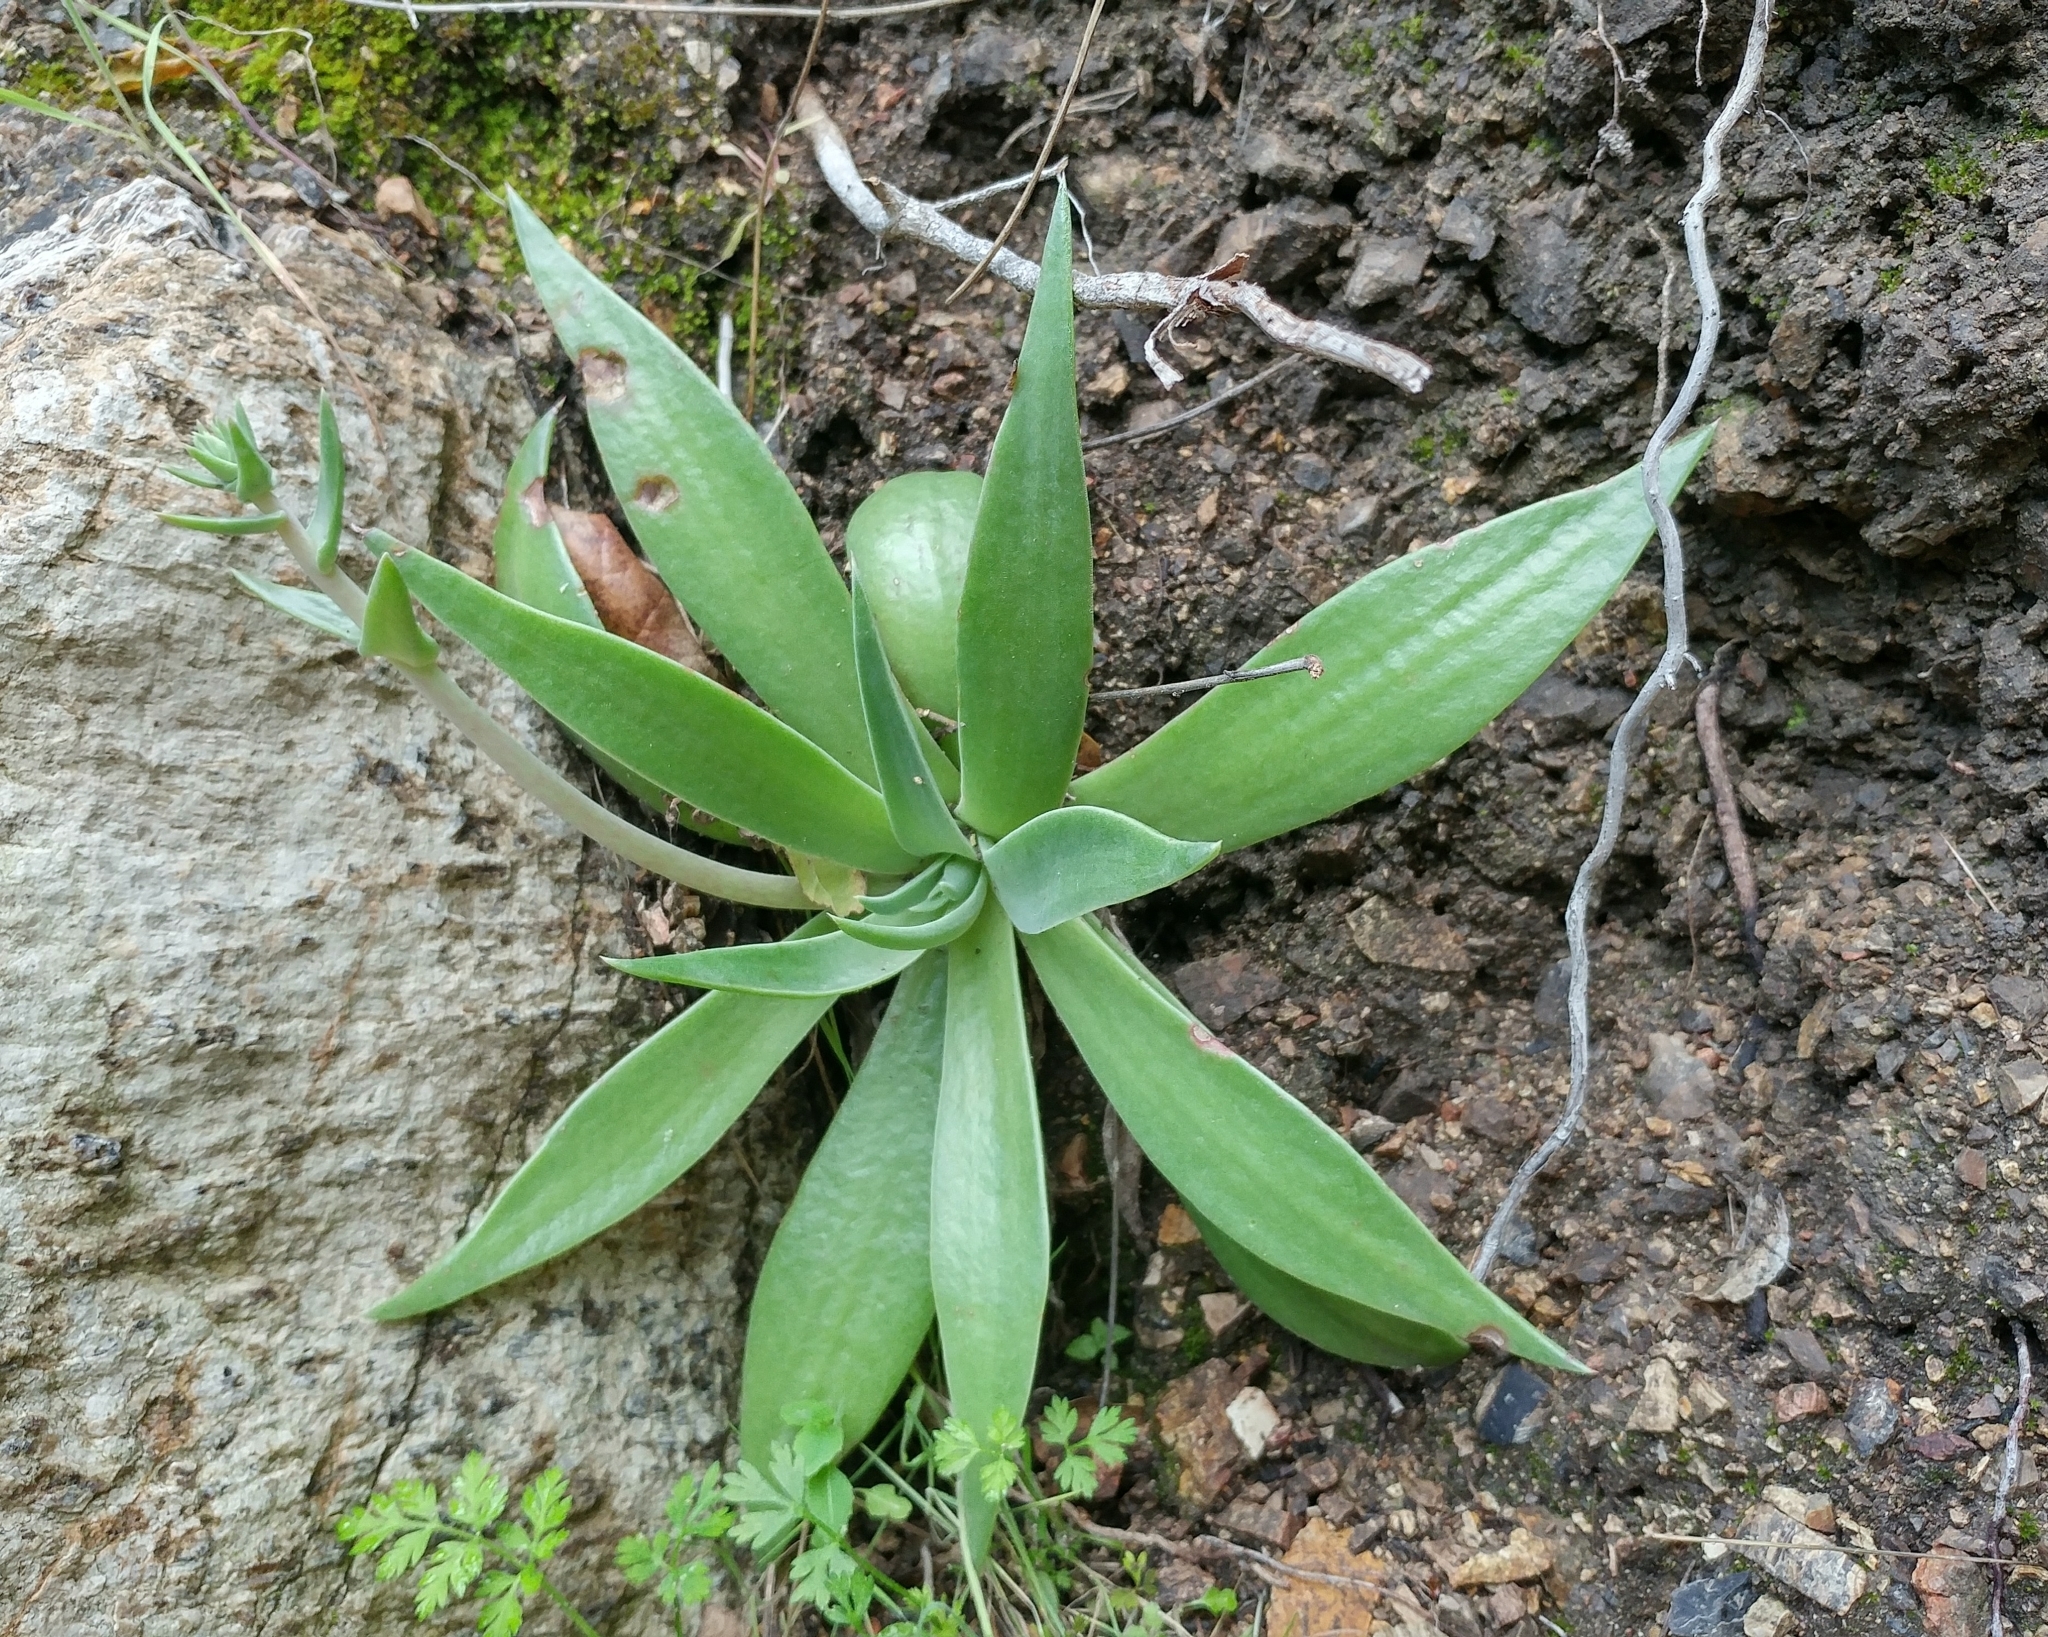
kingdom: Plantae
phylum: Tracheophyta
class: Magnoliopsida
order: Saxifragales
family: Crassulaceae
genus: Dudleya
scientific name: Dudleya lanceolata
